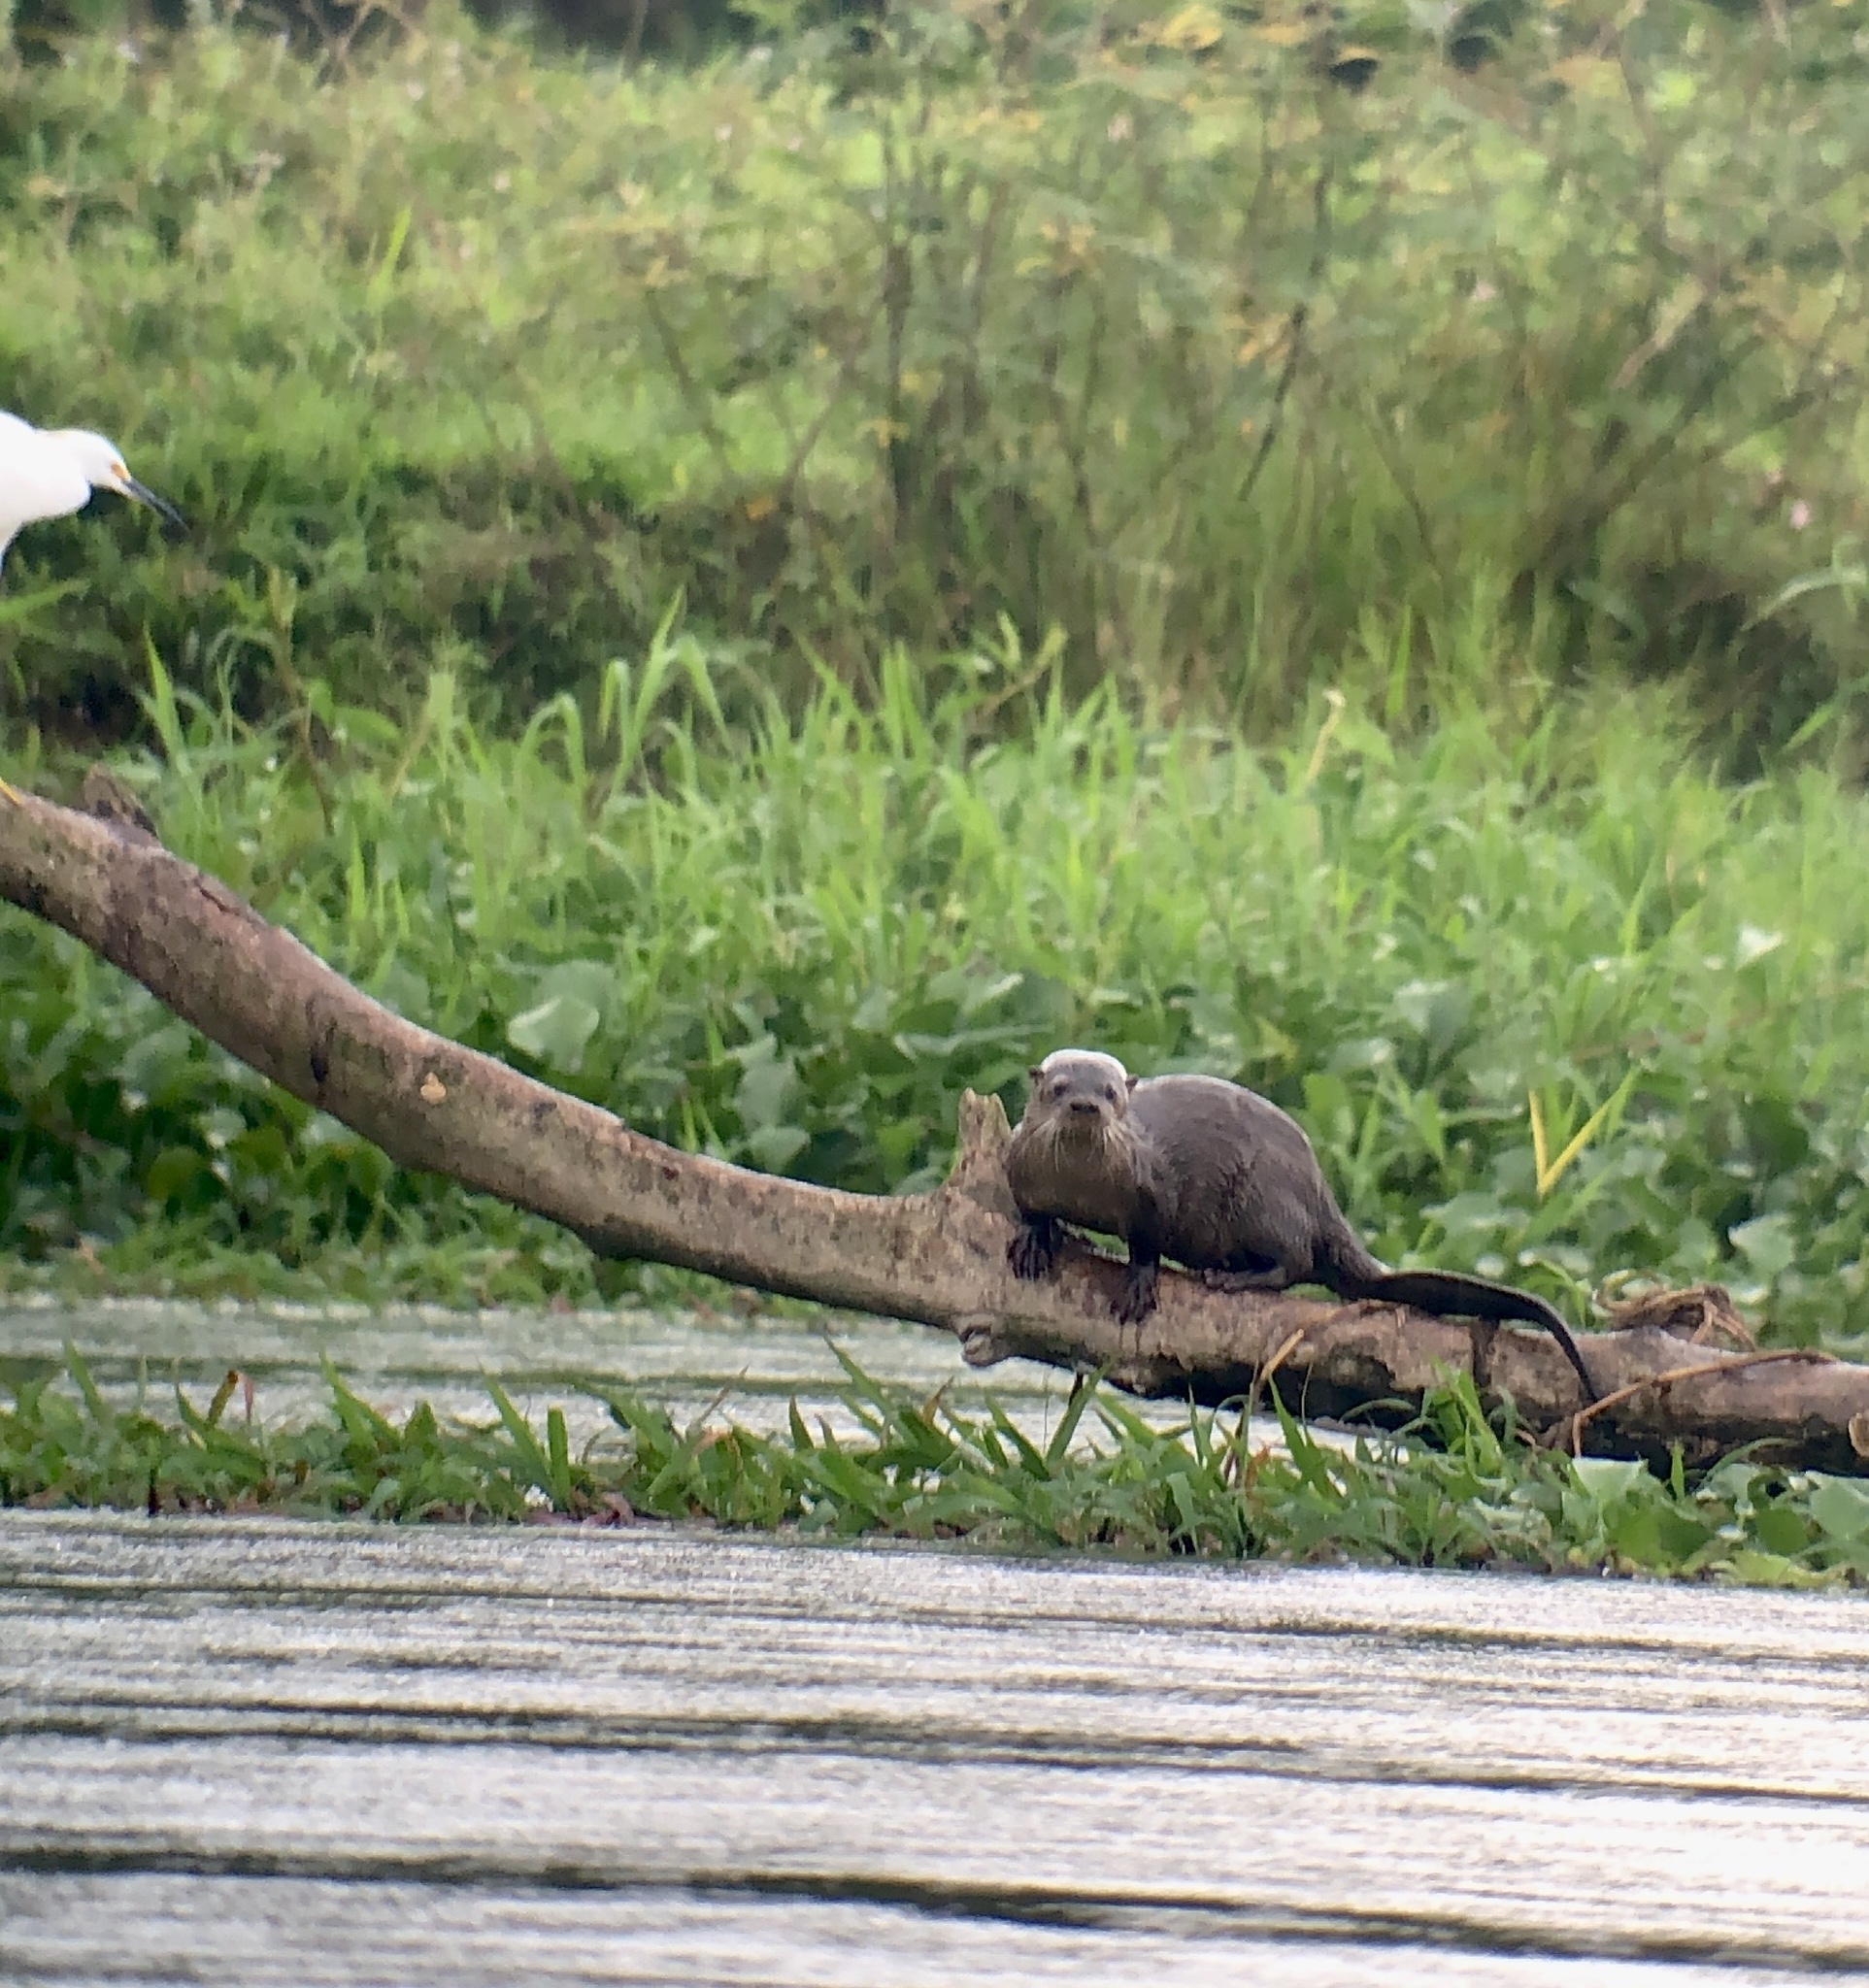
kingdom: Animalia
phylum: Chordata
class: Mammalia
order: Carnivora
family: Mustelidae
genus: Lontra
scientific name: Lontra longicaudis
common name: Neotropical otter
